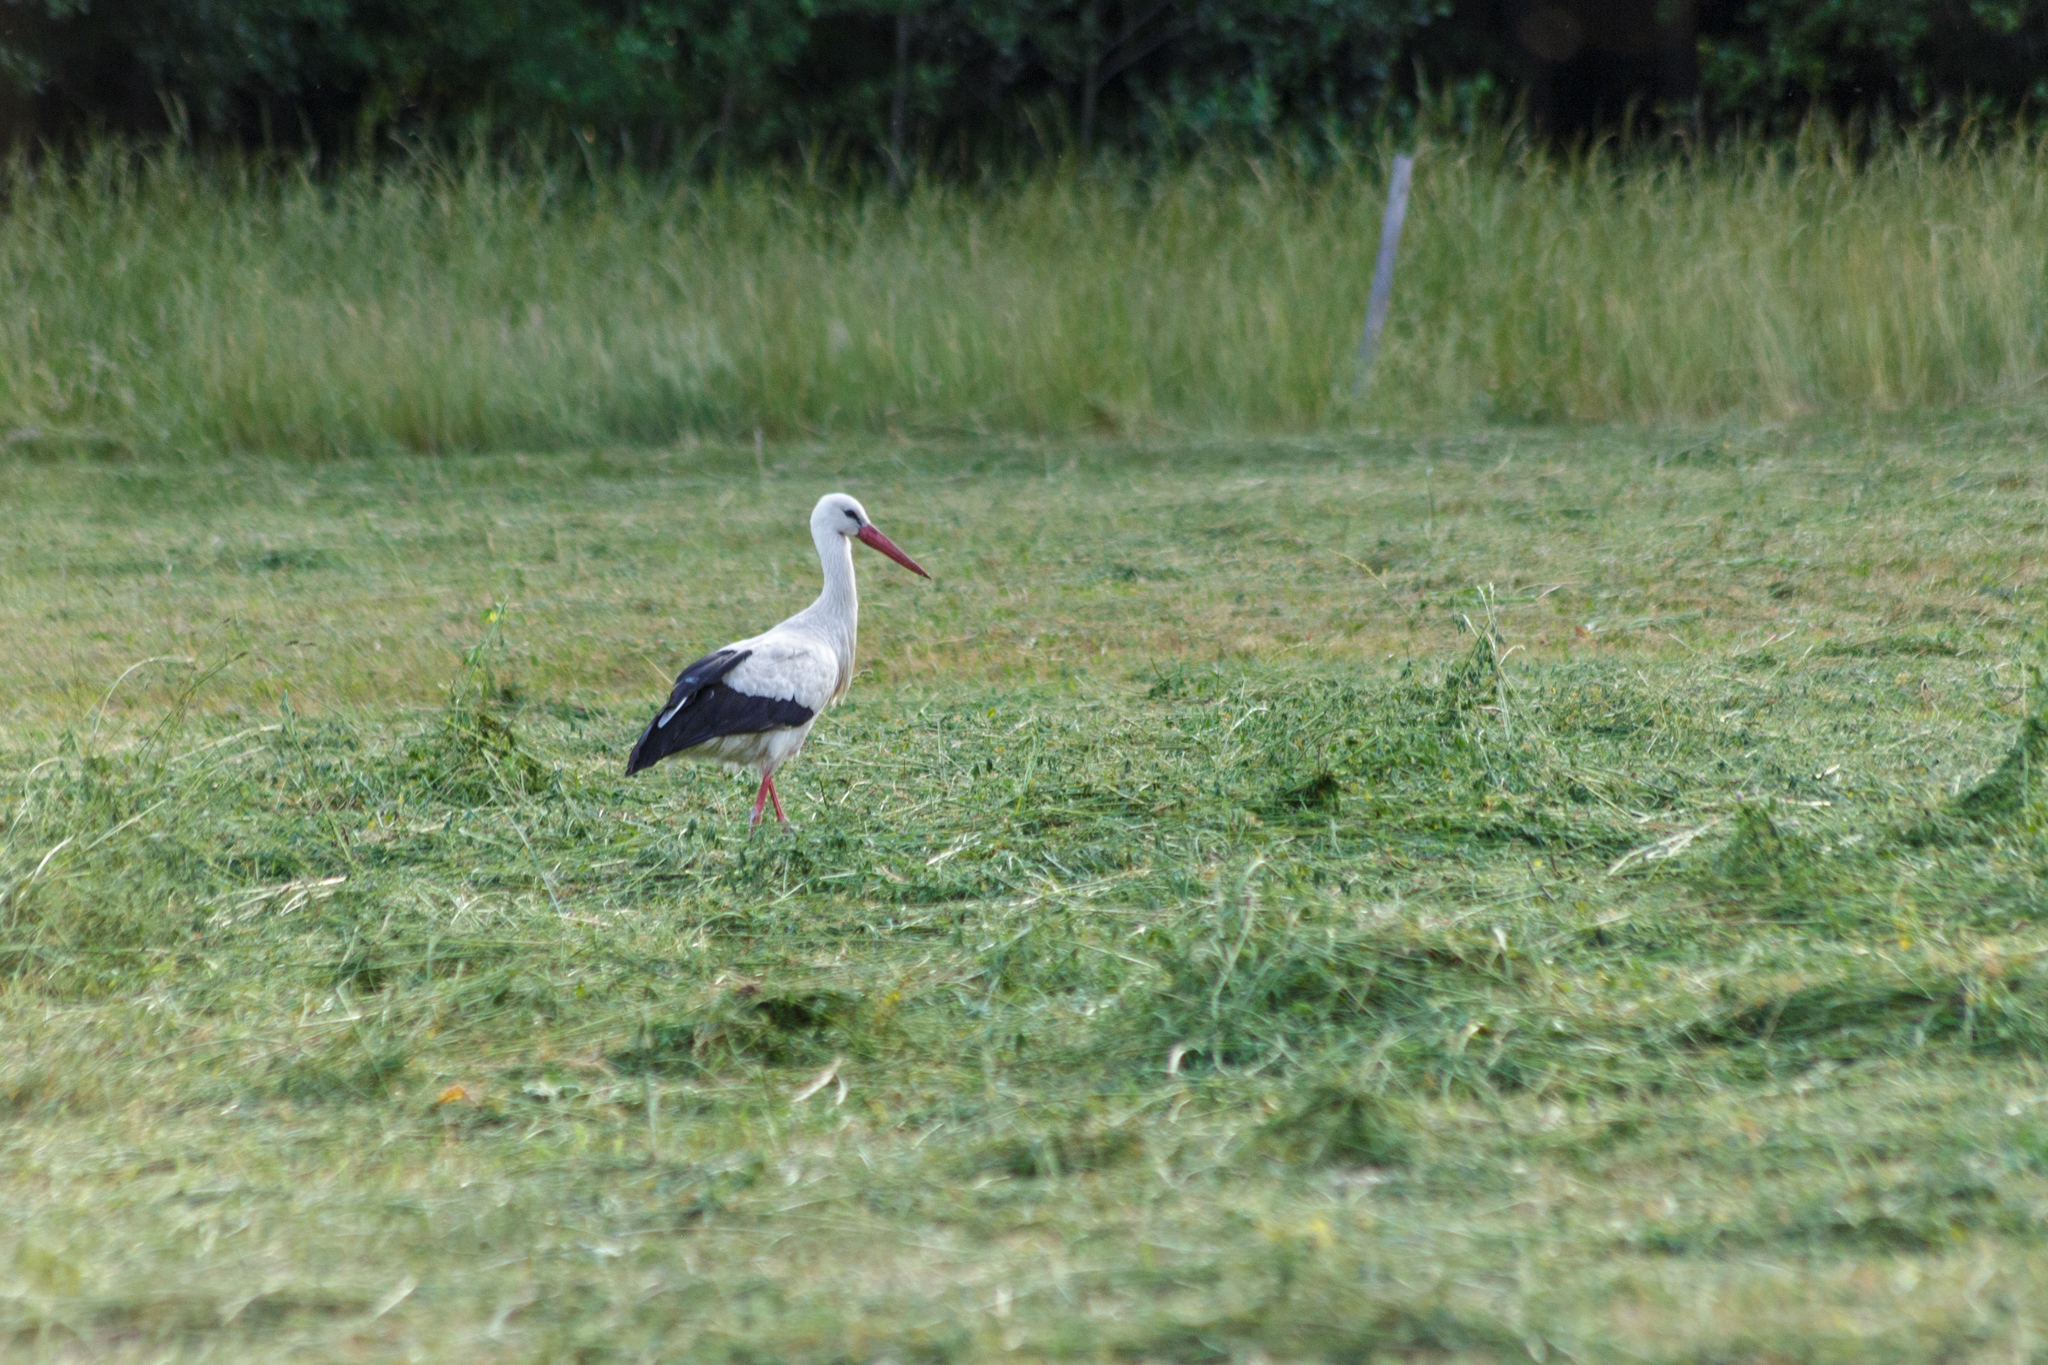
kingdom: Animalia
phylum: Chordata
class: Aves
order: Ciconiiformes
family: Ciconiidae
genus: Ciconia
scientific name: Ciconia ciconia
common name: White stork
